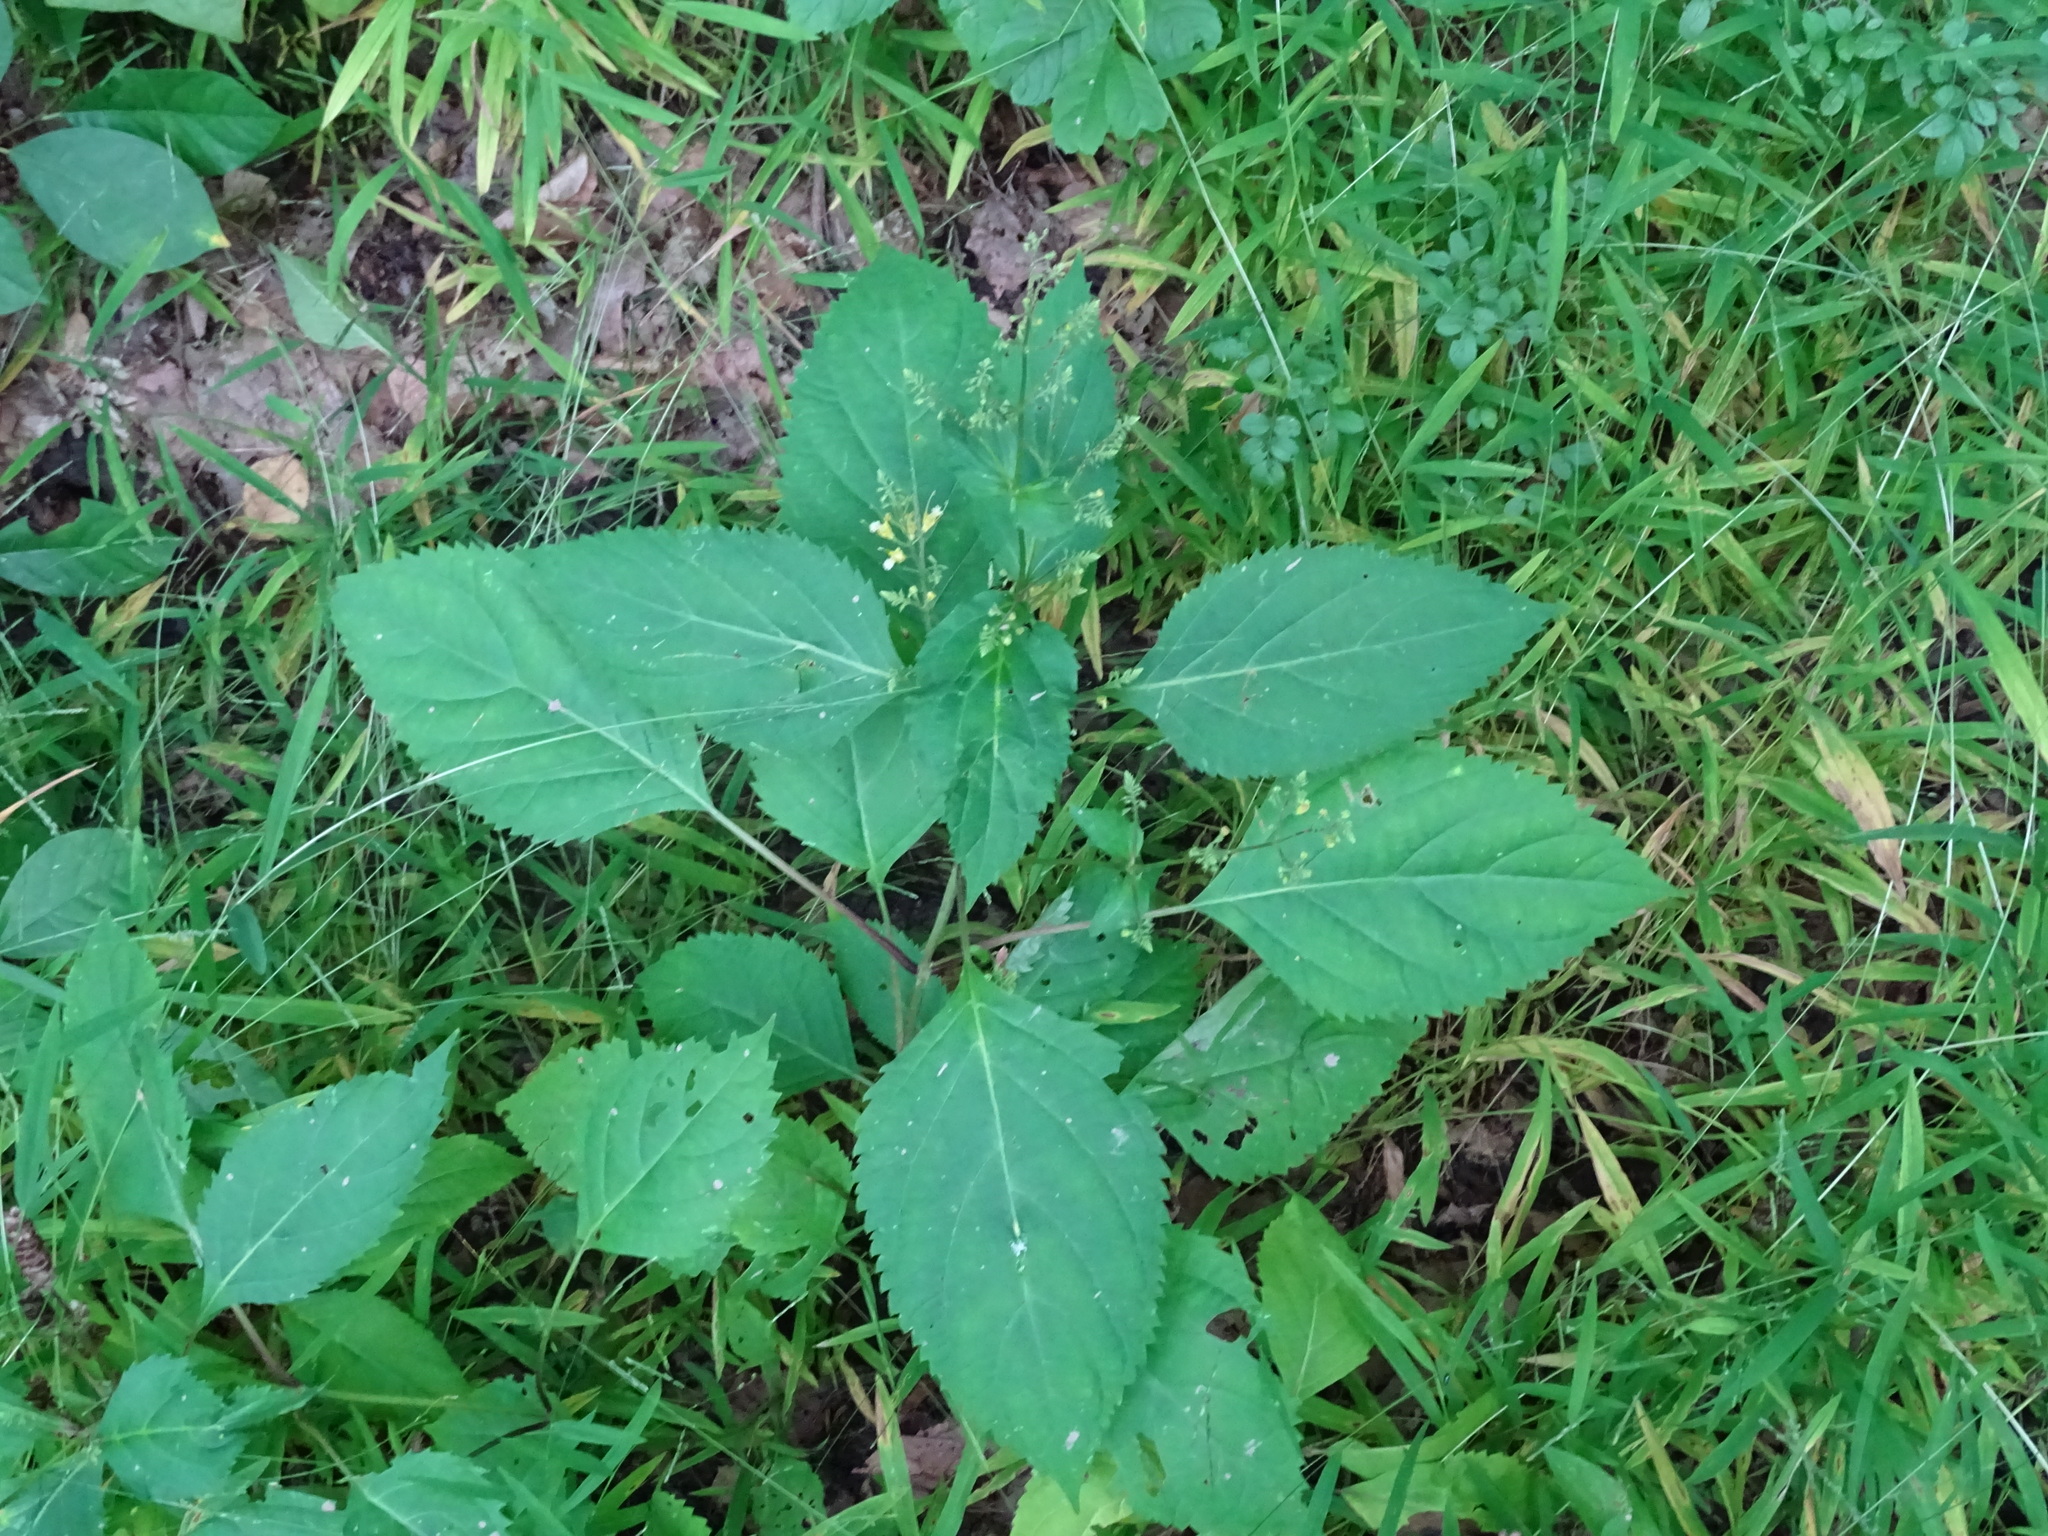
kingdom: Plantae
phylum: Tracheophyta
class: Magnoliopsida
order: Lamiales
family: Lamiaceae
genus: Collinsonia
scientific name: Collinsonia canadensis
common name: Northern horsebalm
